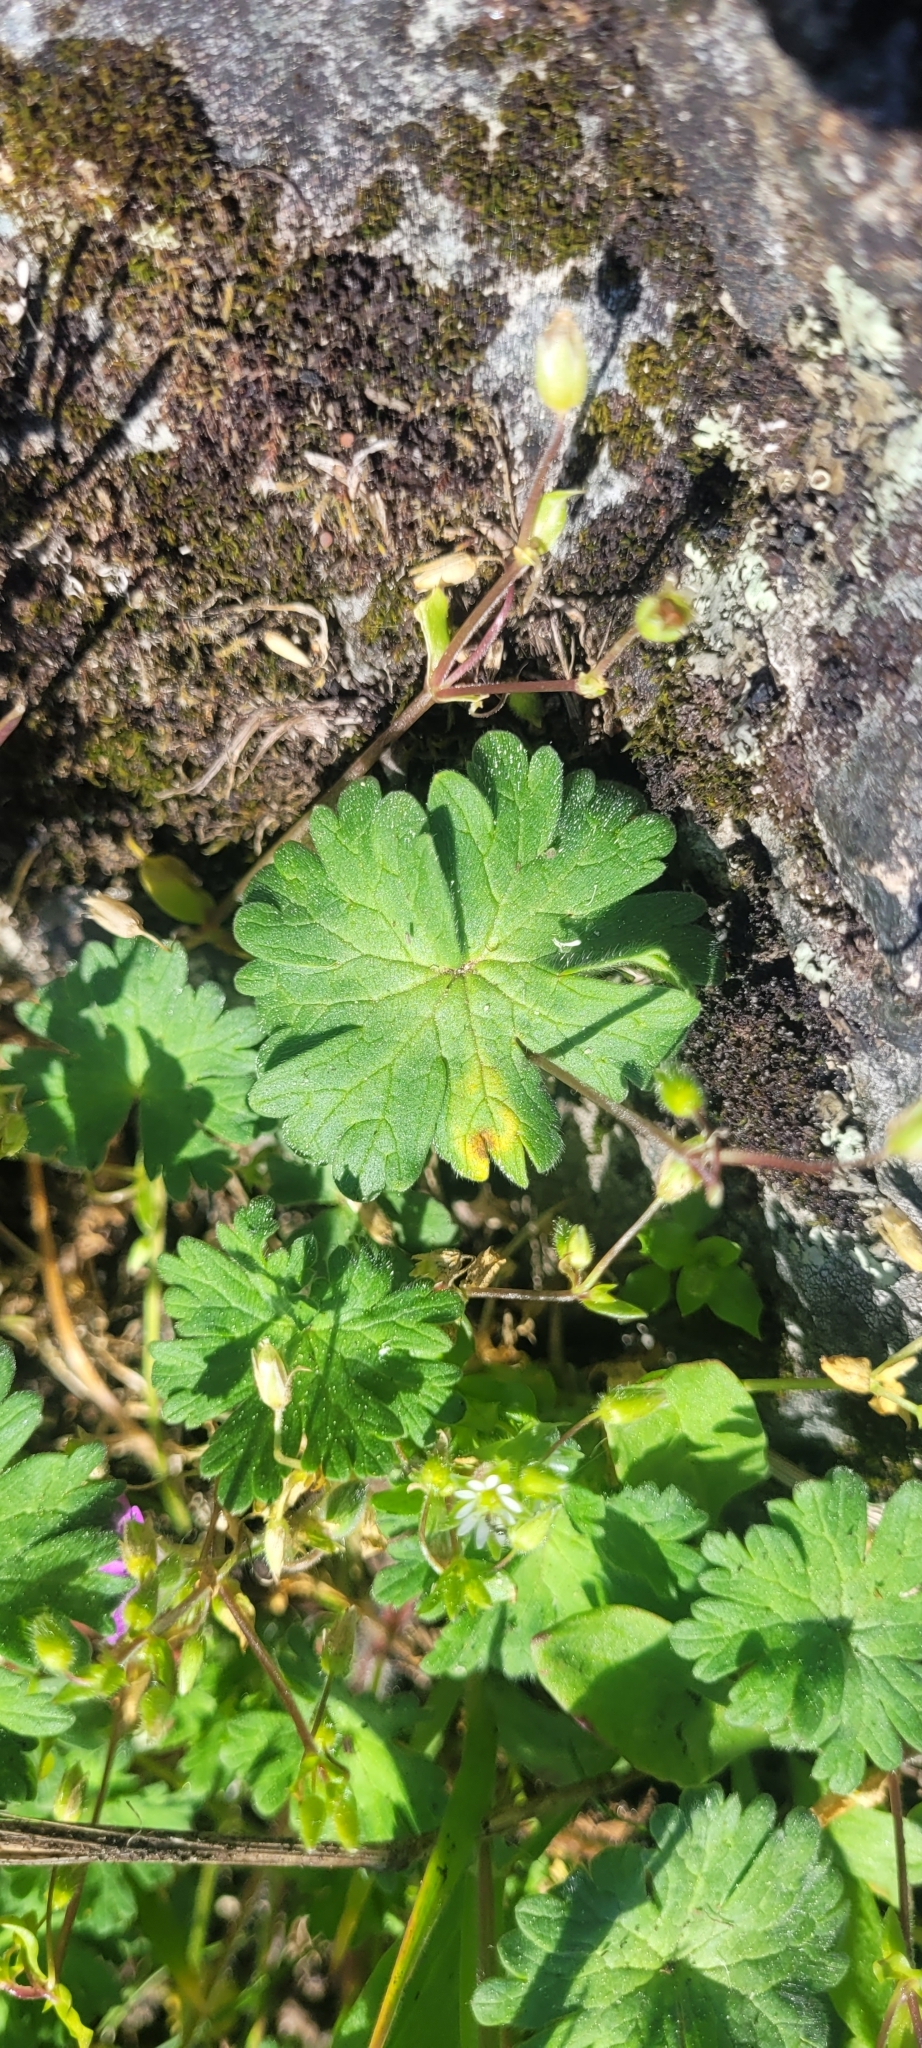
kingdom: Plantae
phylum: Tracheophyta
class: Magnoliopsida
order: Geraniales
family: Geraniaceae
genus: Geranium
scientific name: Geranium molle
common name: Dove's-foot crane's-bill
